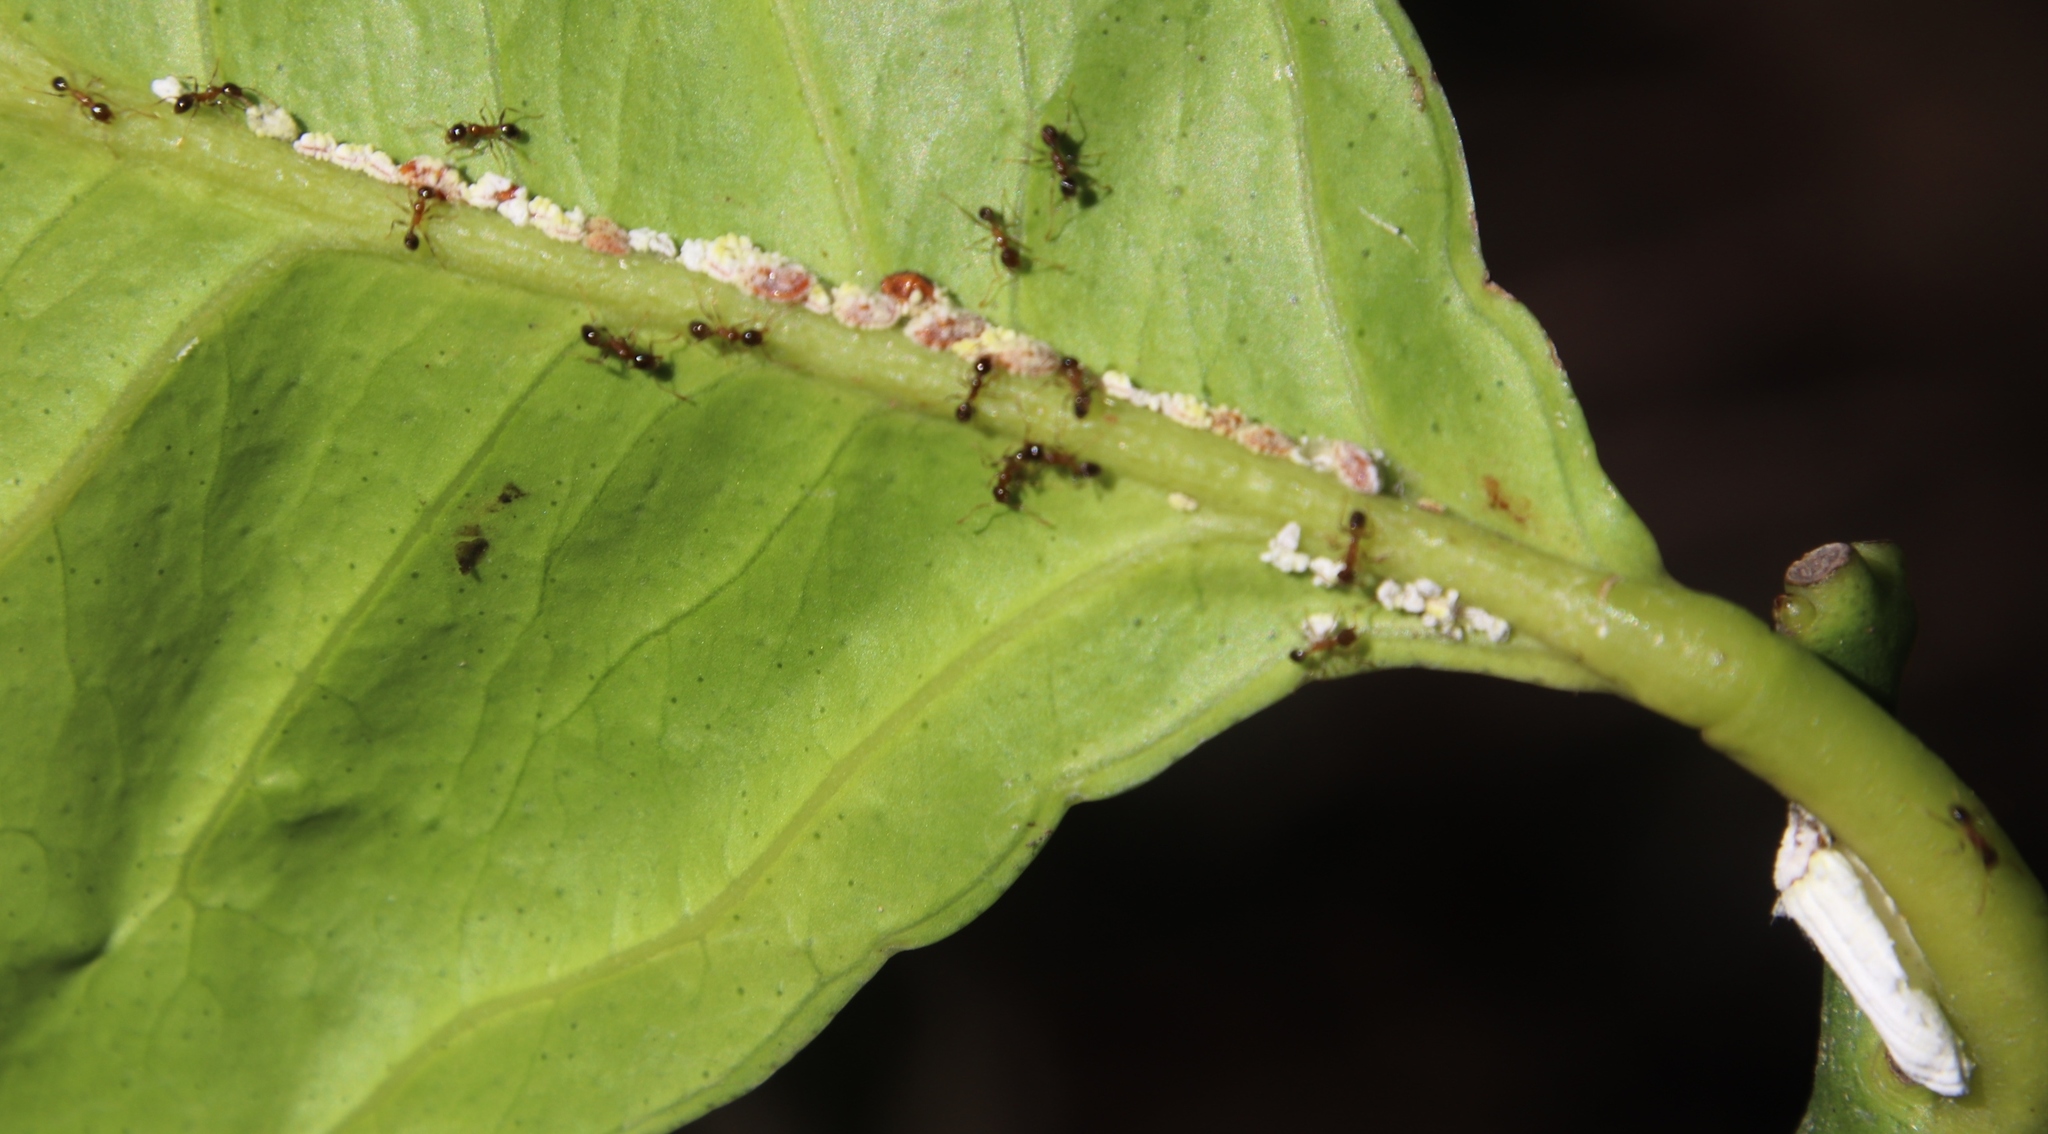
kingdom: Animalia
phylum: Arthropoda
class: Insecta
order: Hymenoptera
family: Formicidae
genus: Pheidole
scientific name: Pheidole megacephala
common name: Bigheaded ant
